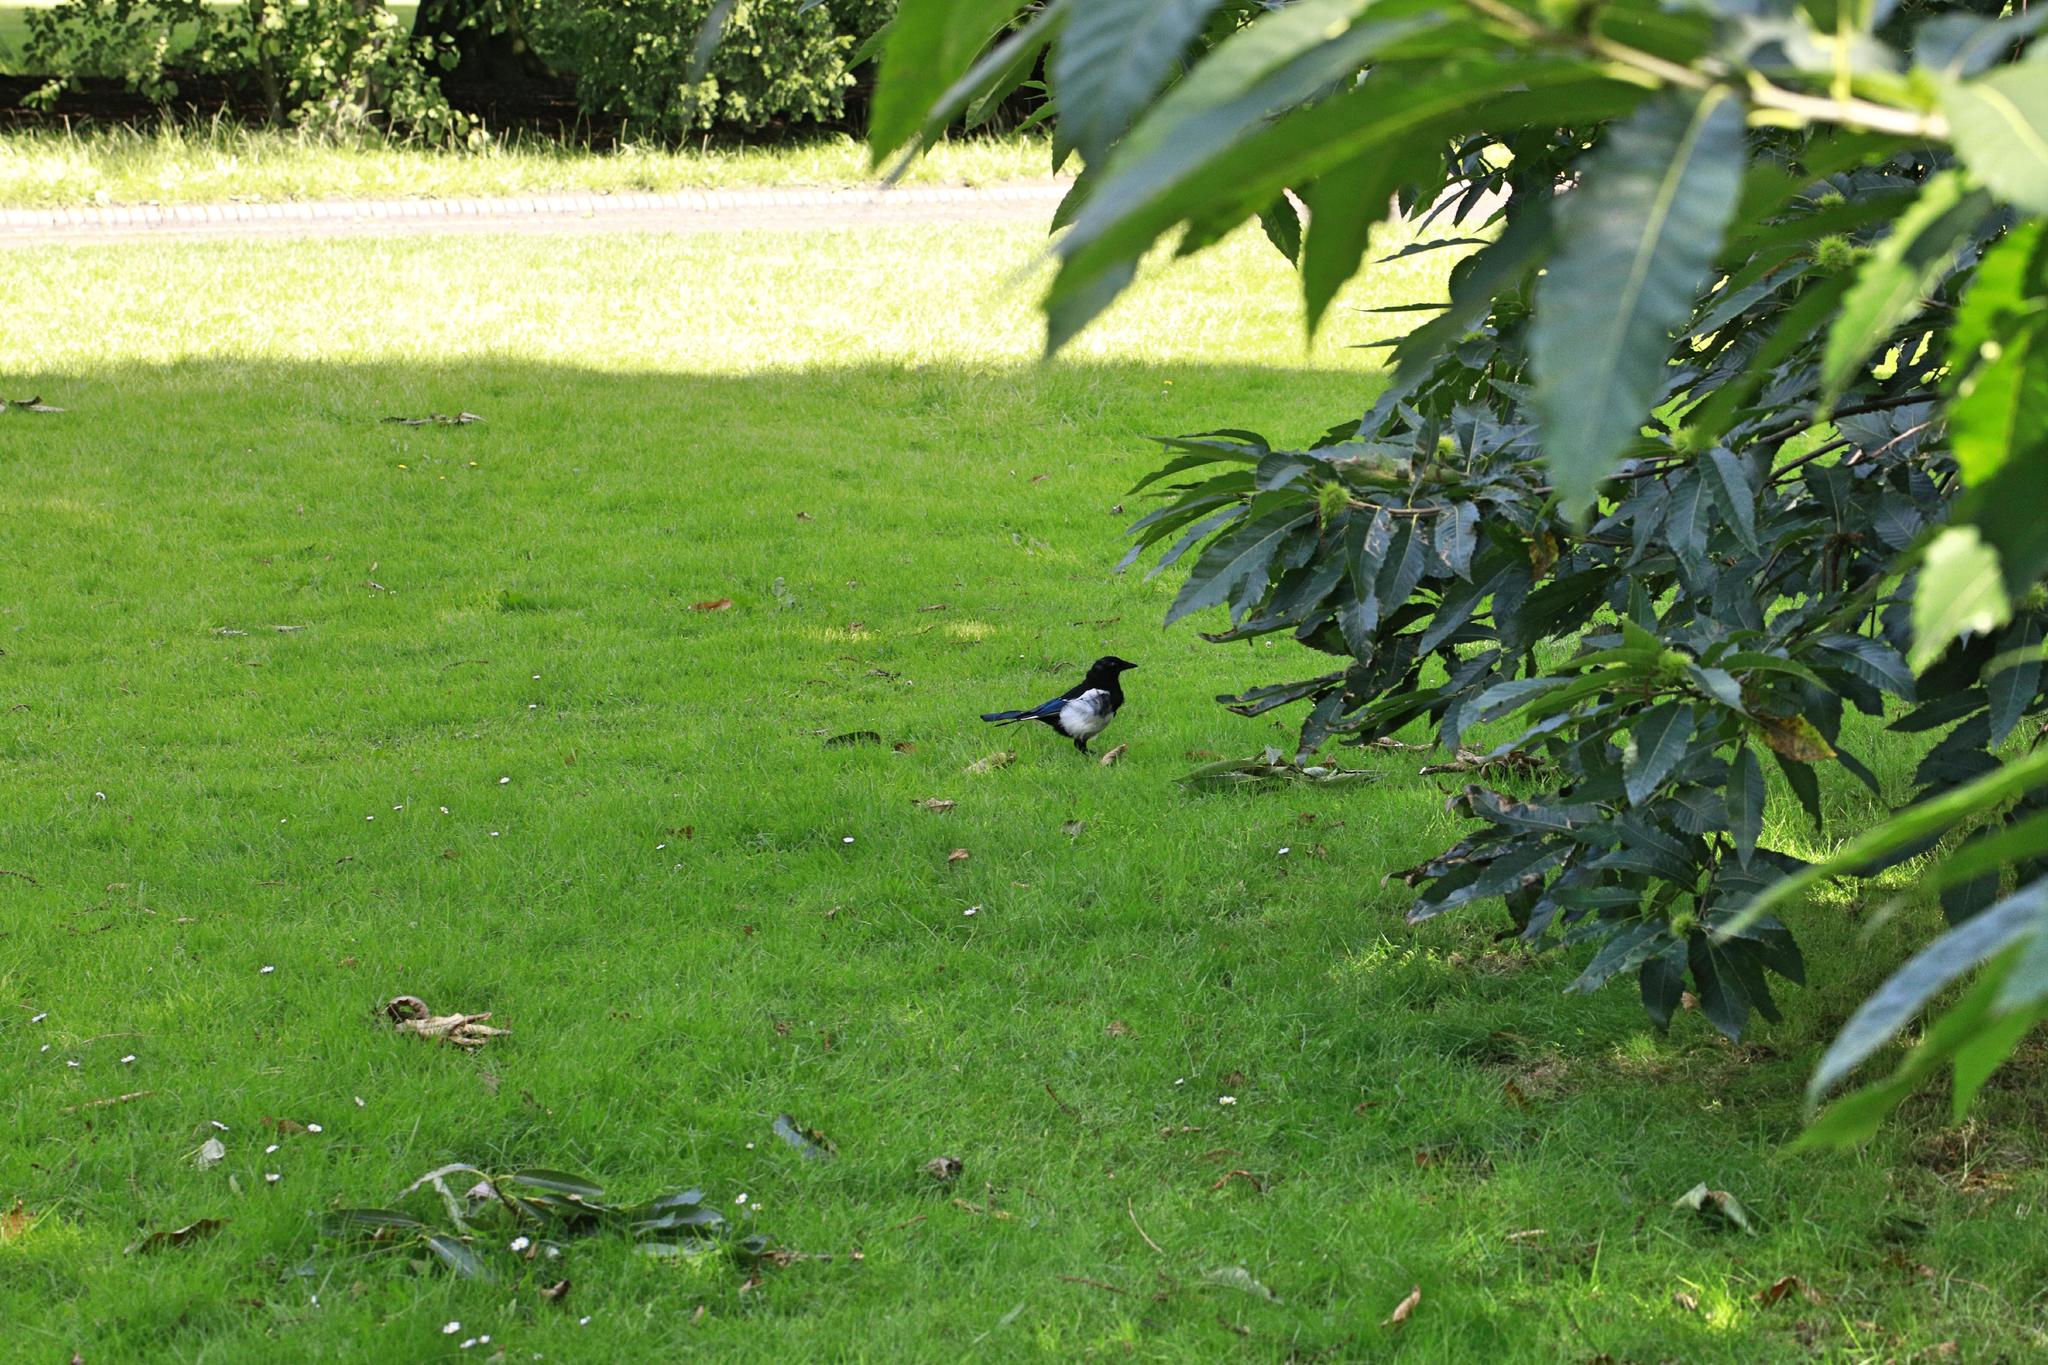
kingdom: Animalia
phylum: Chordata
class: Aves
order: Passeriformes
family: Corvidae
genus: Pica
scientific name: Pica pica
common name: Eurasian magpie
